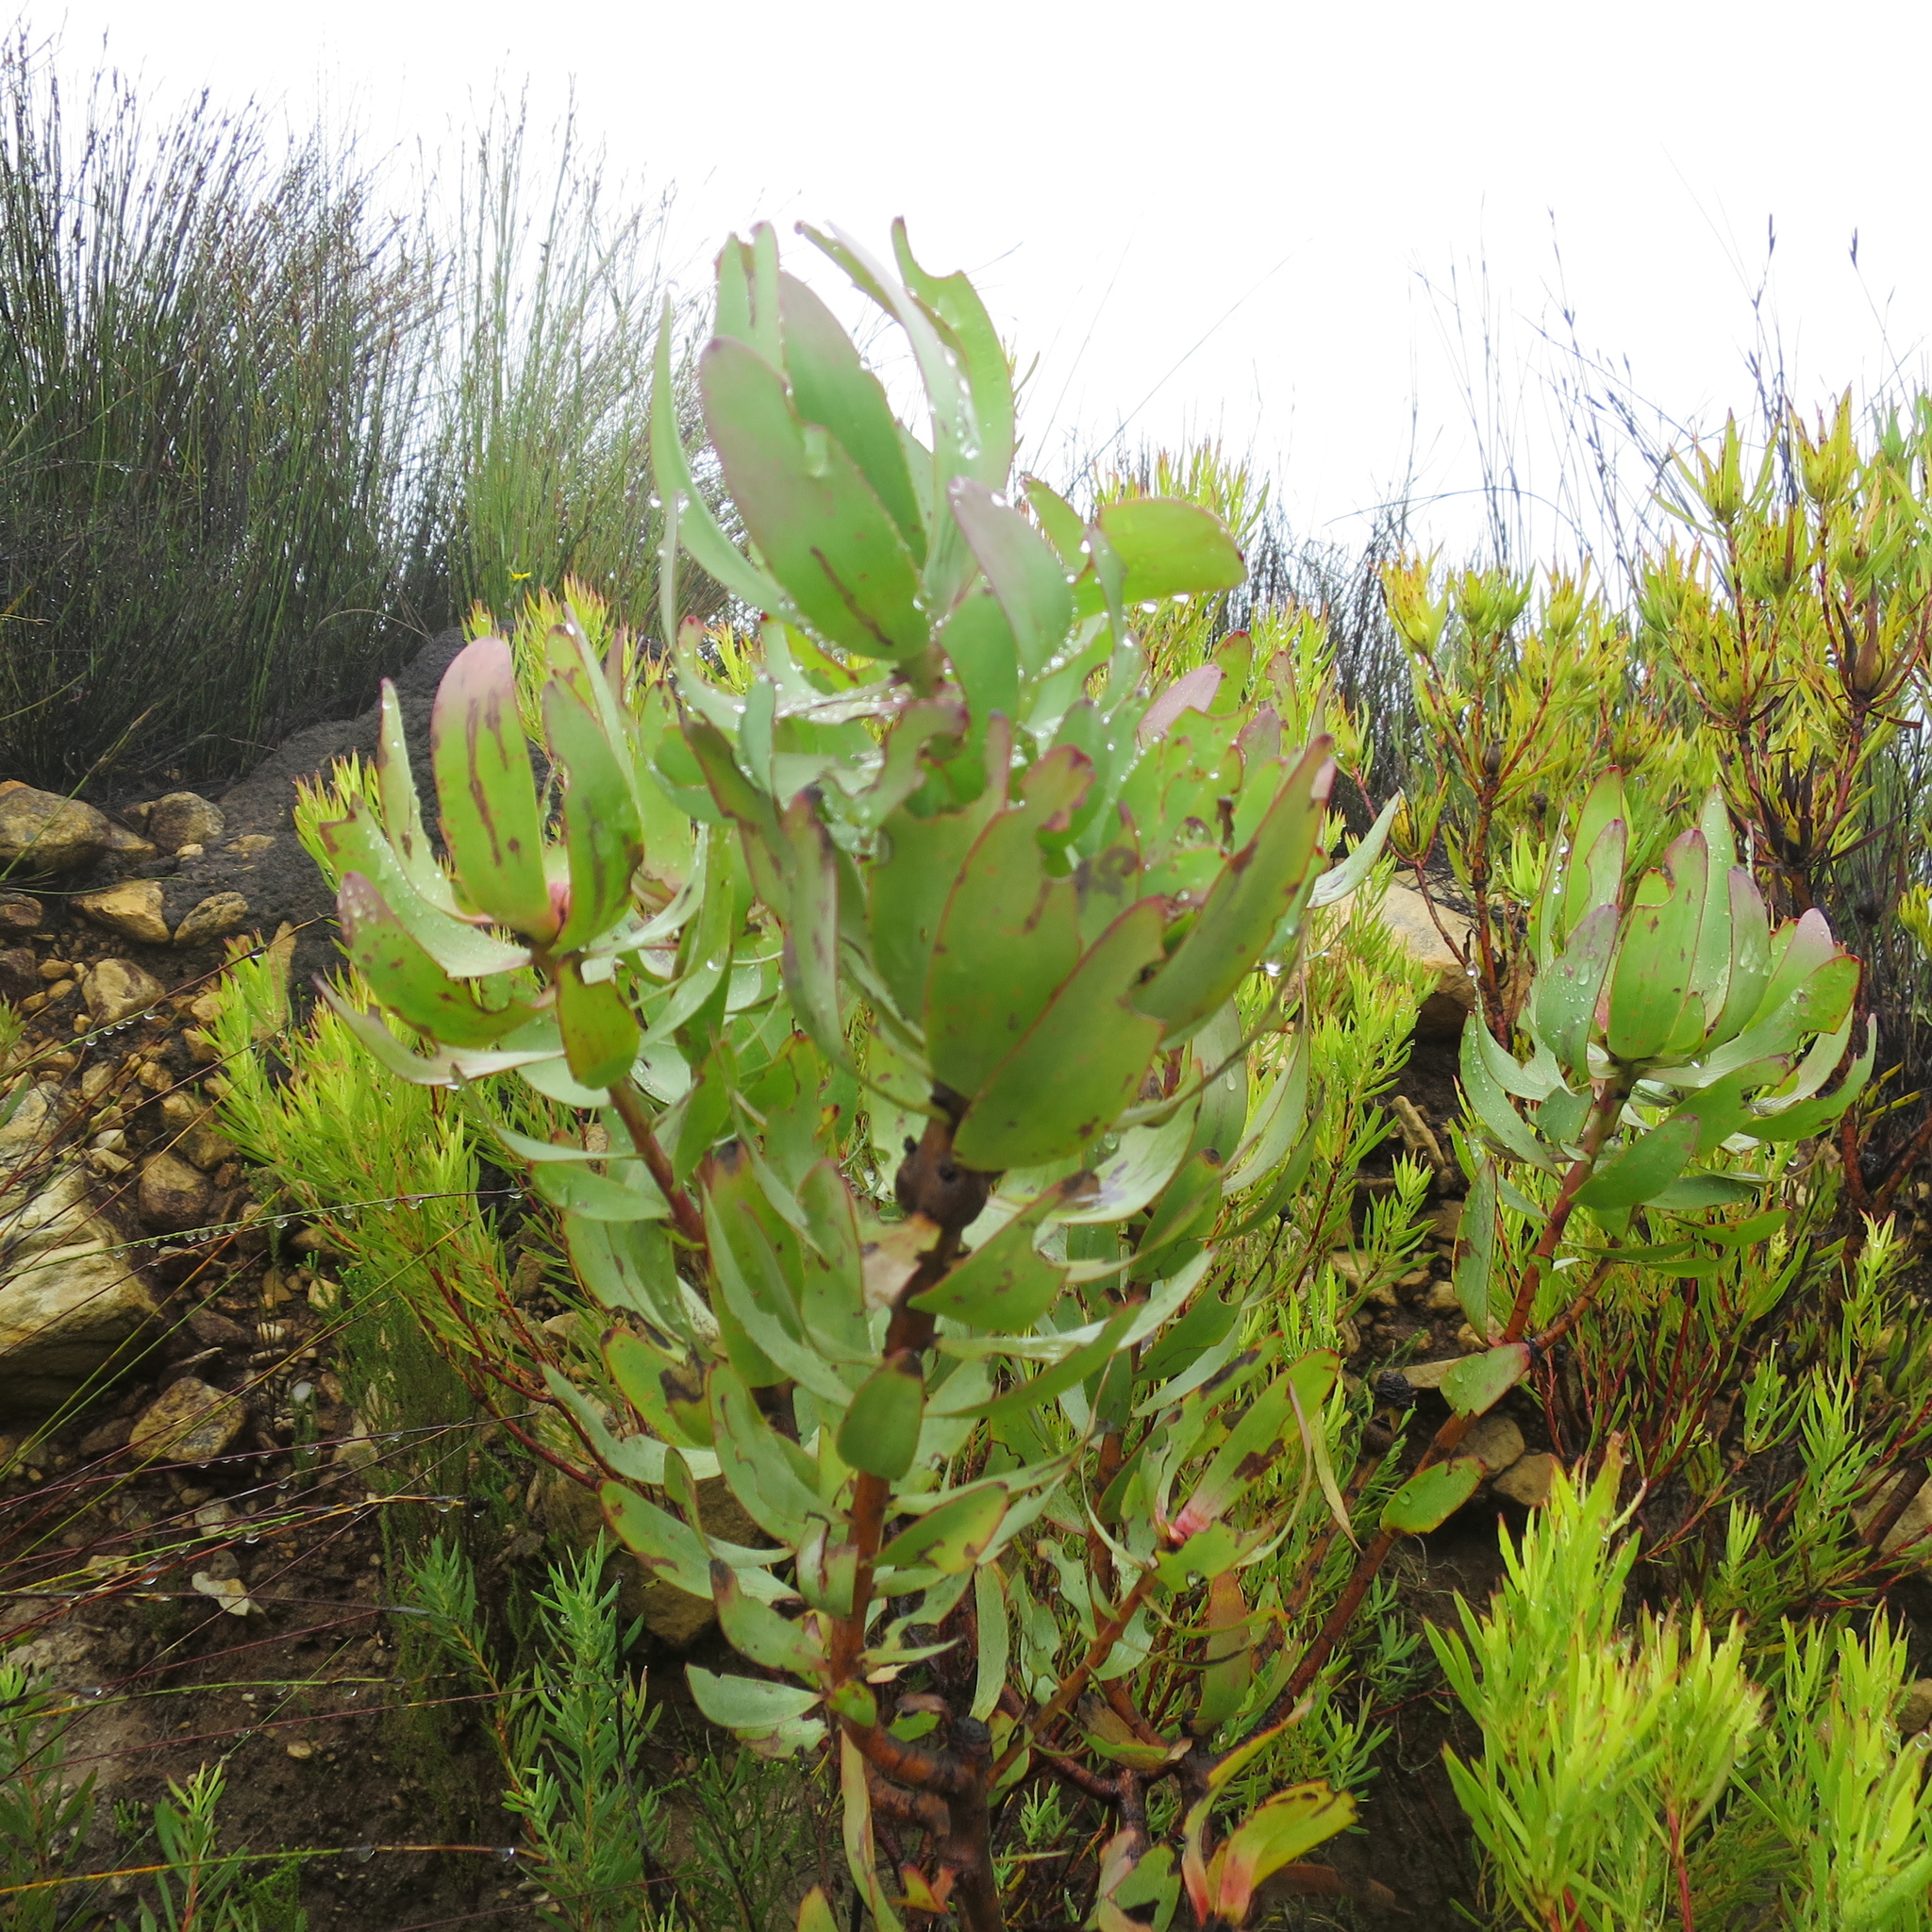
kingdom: Plantae
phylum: Tracheophyta
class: Magnoliopsida
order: Proteales
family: Proteaceae
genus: Leucadendron
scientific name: Leucadendron tinctum
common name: Spicy conebush
